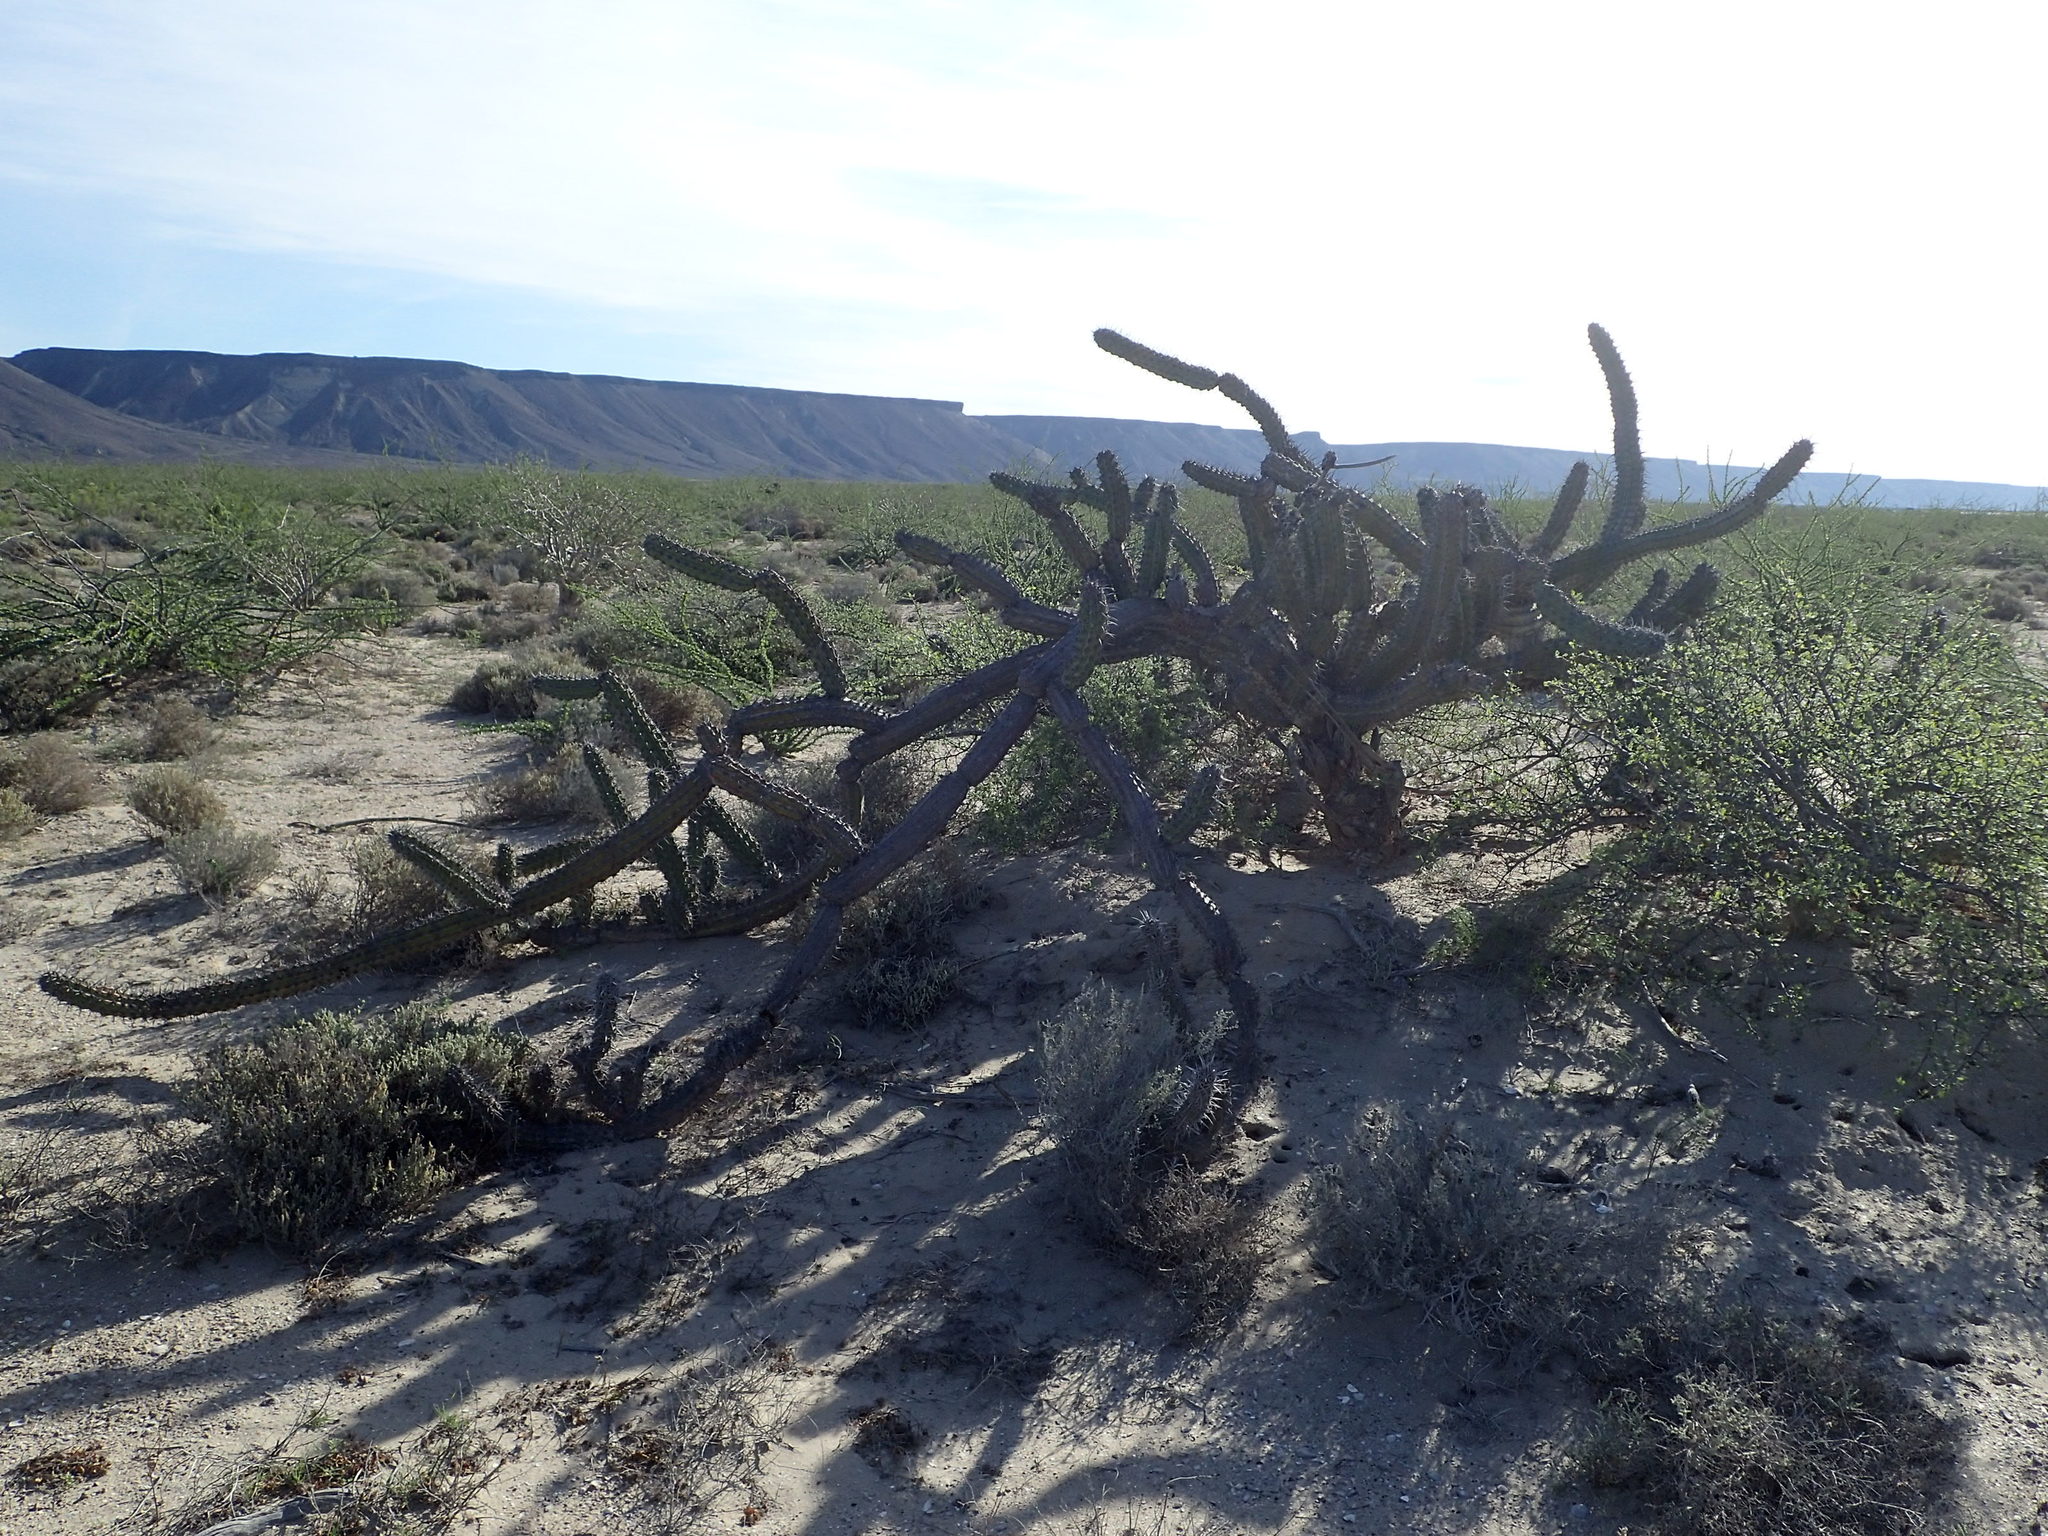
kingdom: Plantae
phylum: Tracheophyta
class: Magnoliopsida
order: Caryophyllales
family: Cactaceae
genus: Stenocereus
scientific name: Stenocereus gummosus
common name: Dagger cactus
